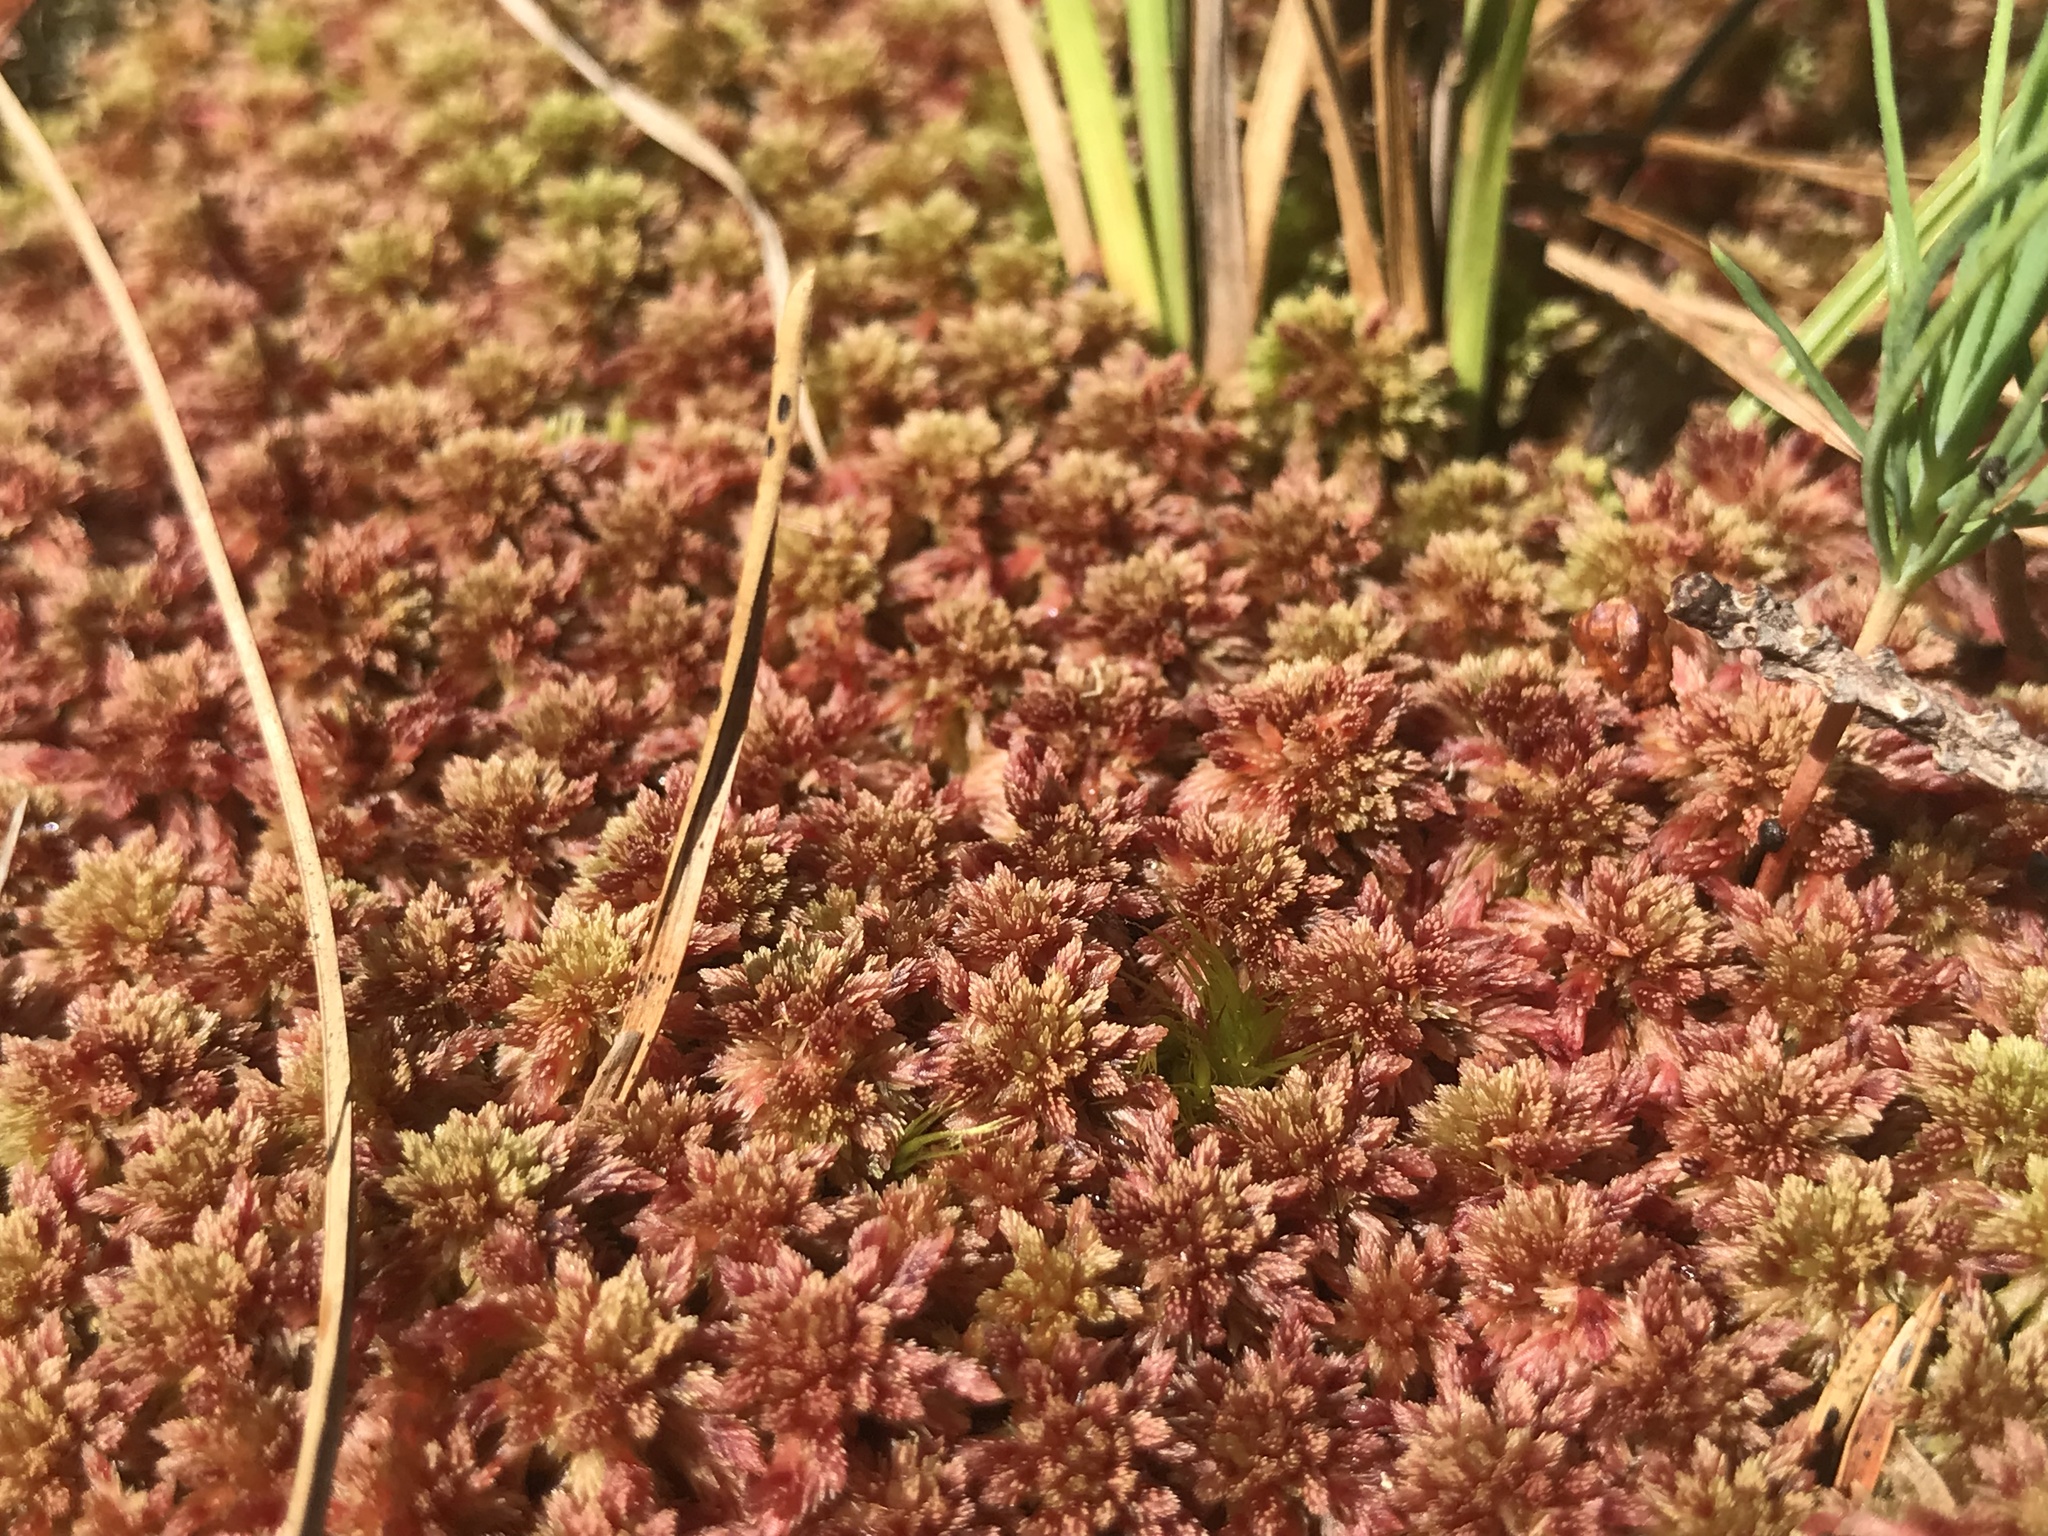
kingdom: Plantae
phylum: Bryophyta
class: Sphagnopsida
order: Sphagnales
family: Sphagnaceae
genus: Sphagnum
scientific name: Sphagnum magellanicum
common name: Magellan's peat moss
